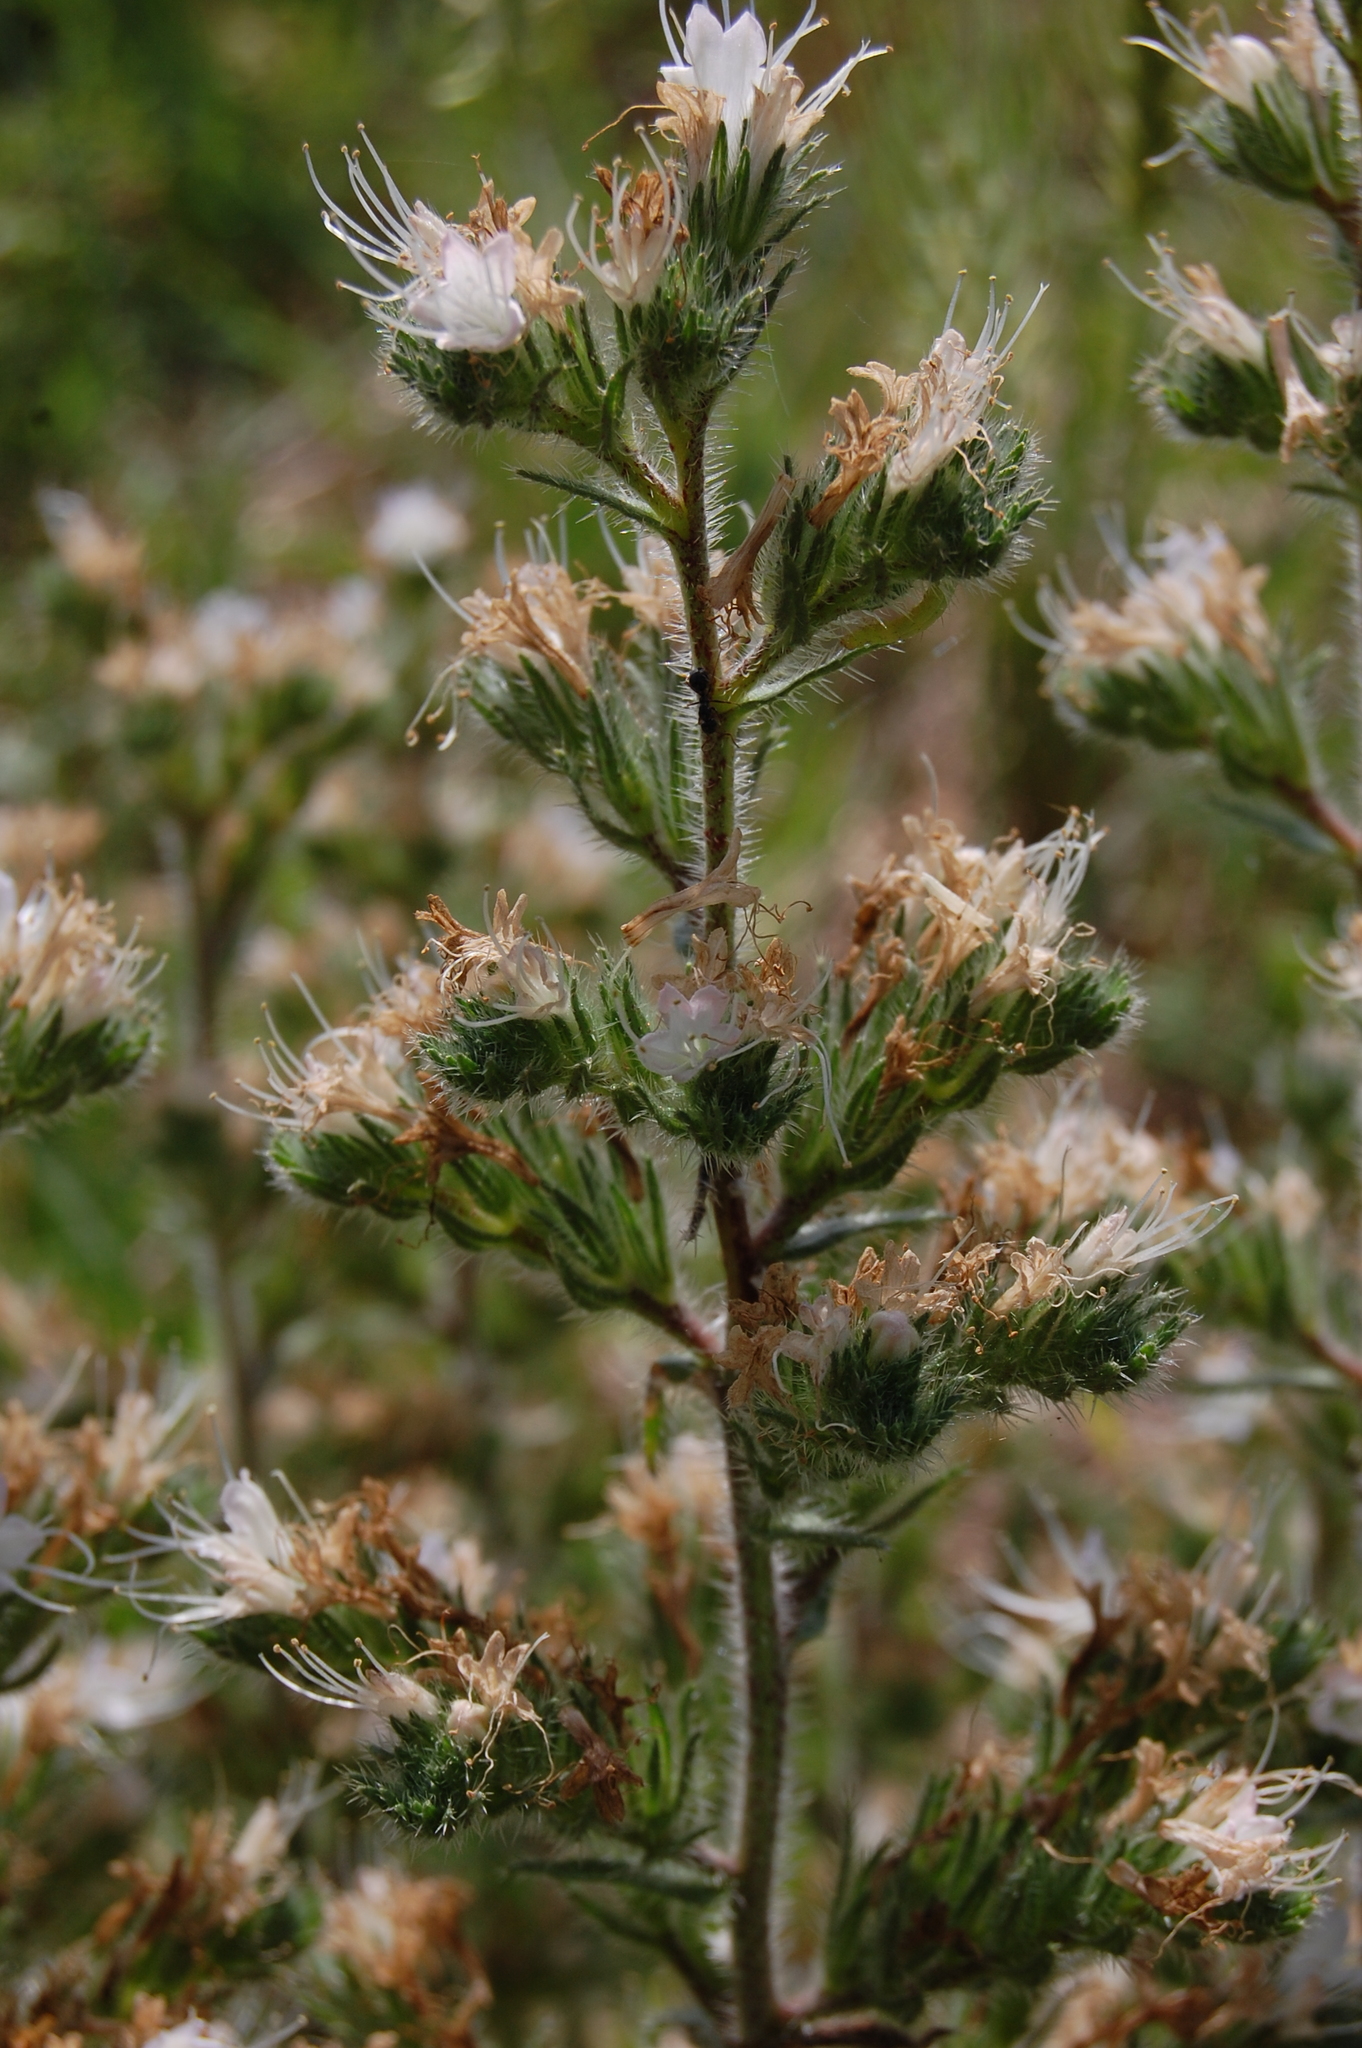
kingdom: Plantae
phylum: Tracheophyta
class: Magnoliopsida
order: Boraginales
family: Boraginaceae
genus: Echium
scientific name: Echium italicum
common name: Italian viper's bugloss
